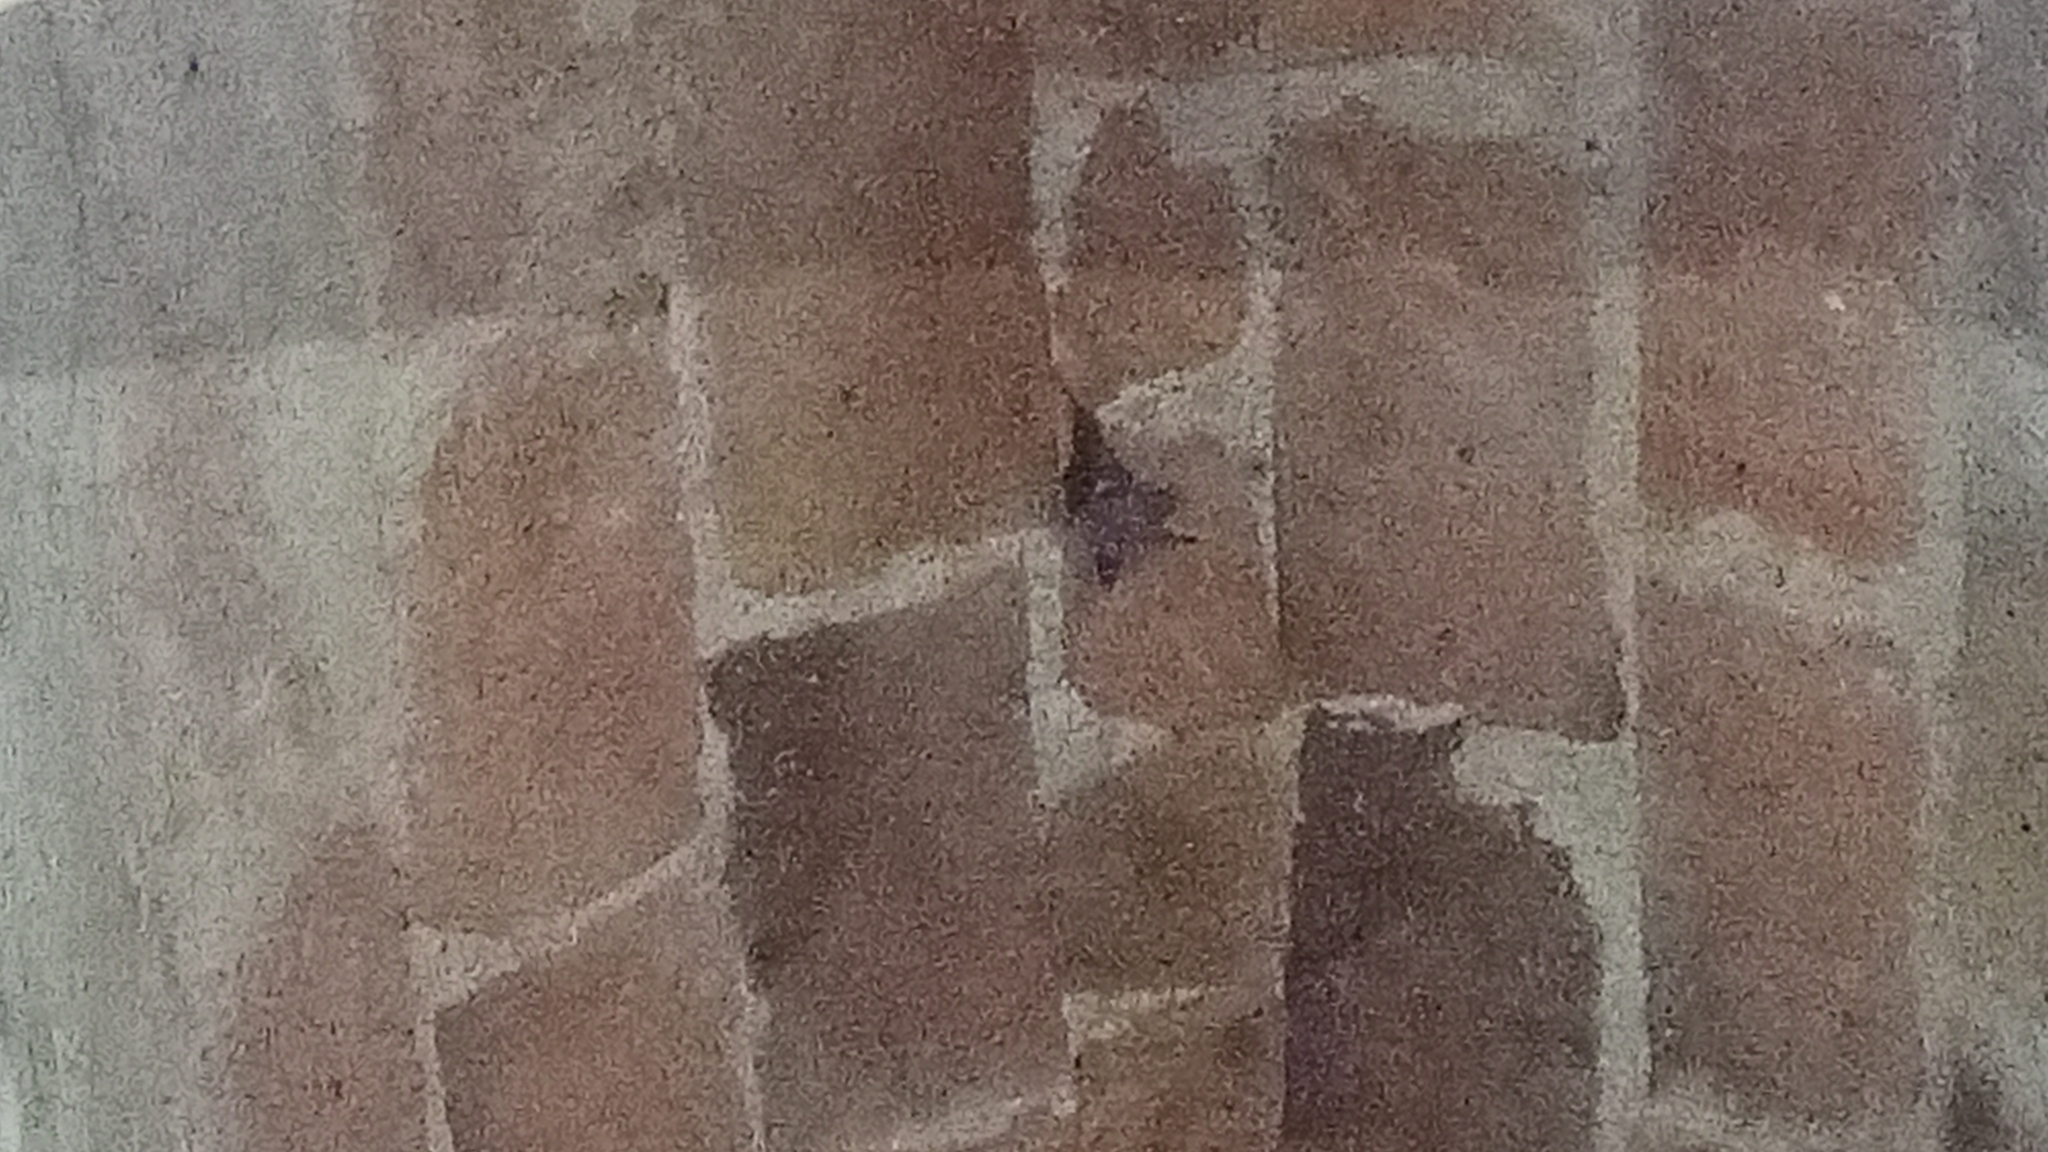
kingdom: Animalia
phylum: Chordata
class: Mammalia
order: Chiroptera
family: Phyllostomidae
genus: Macrotus
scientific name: Macrotus waterhousii
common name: Waterhouse's leaf-nosed bat
